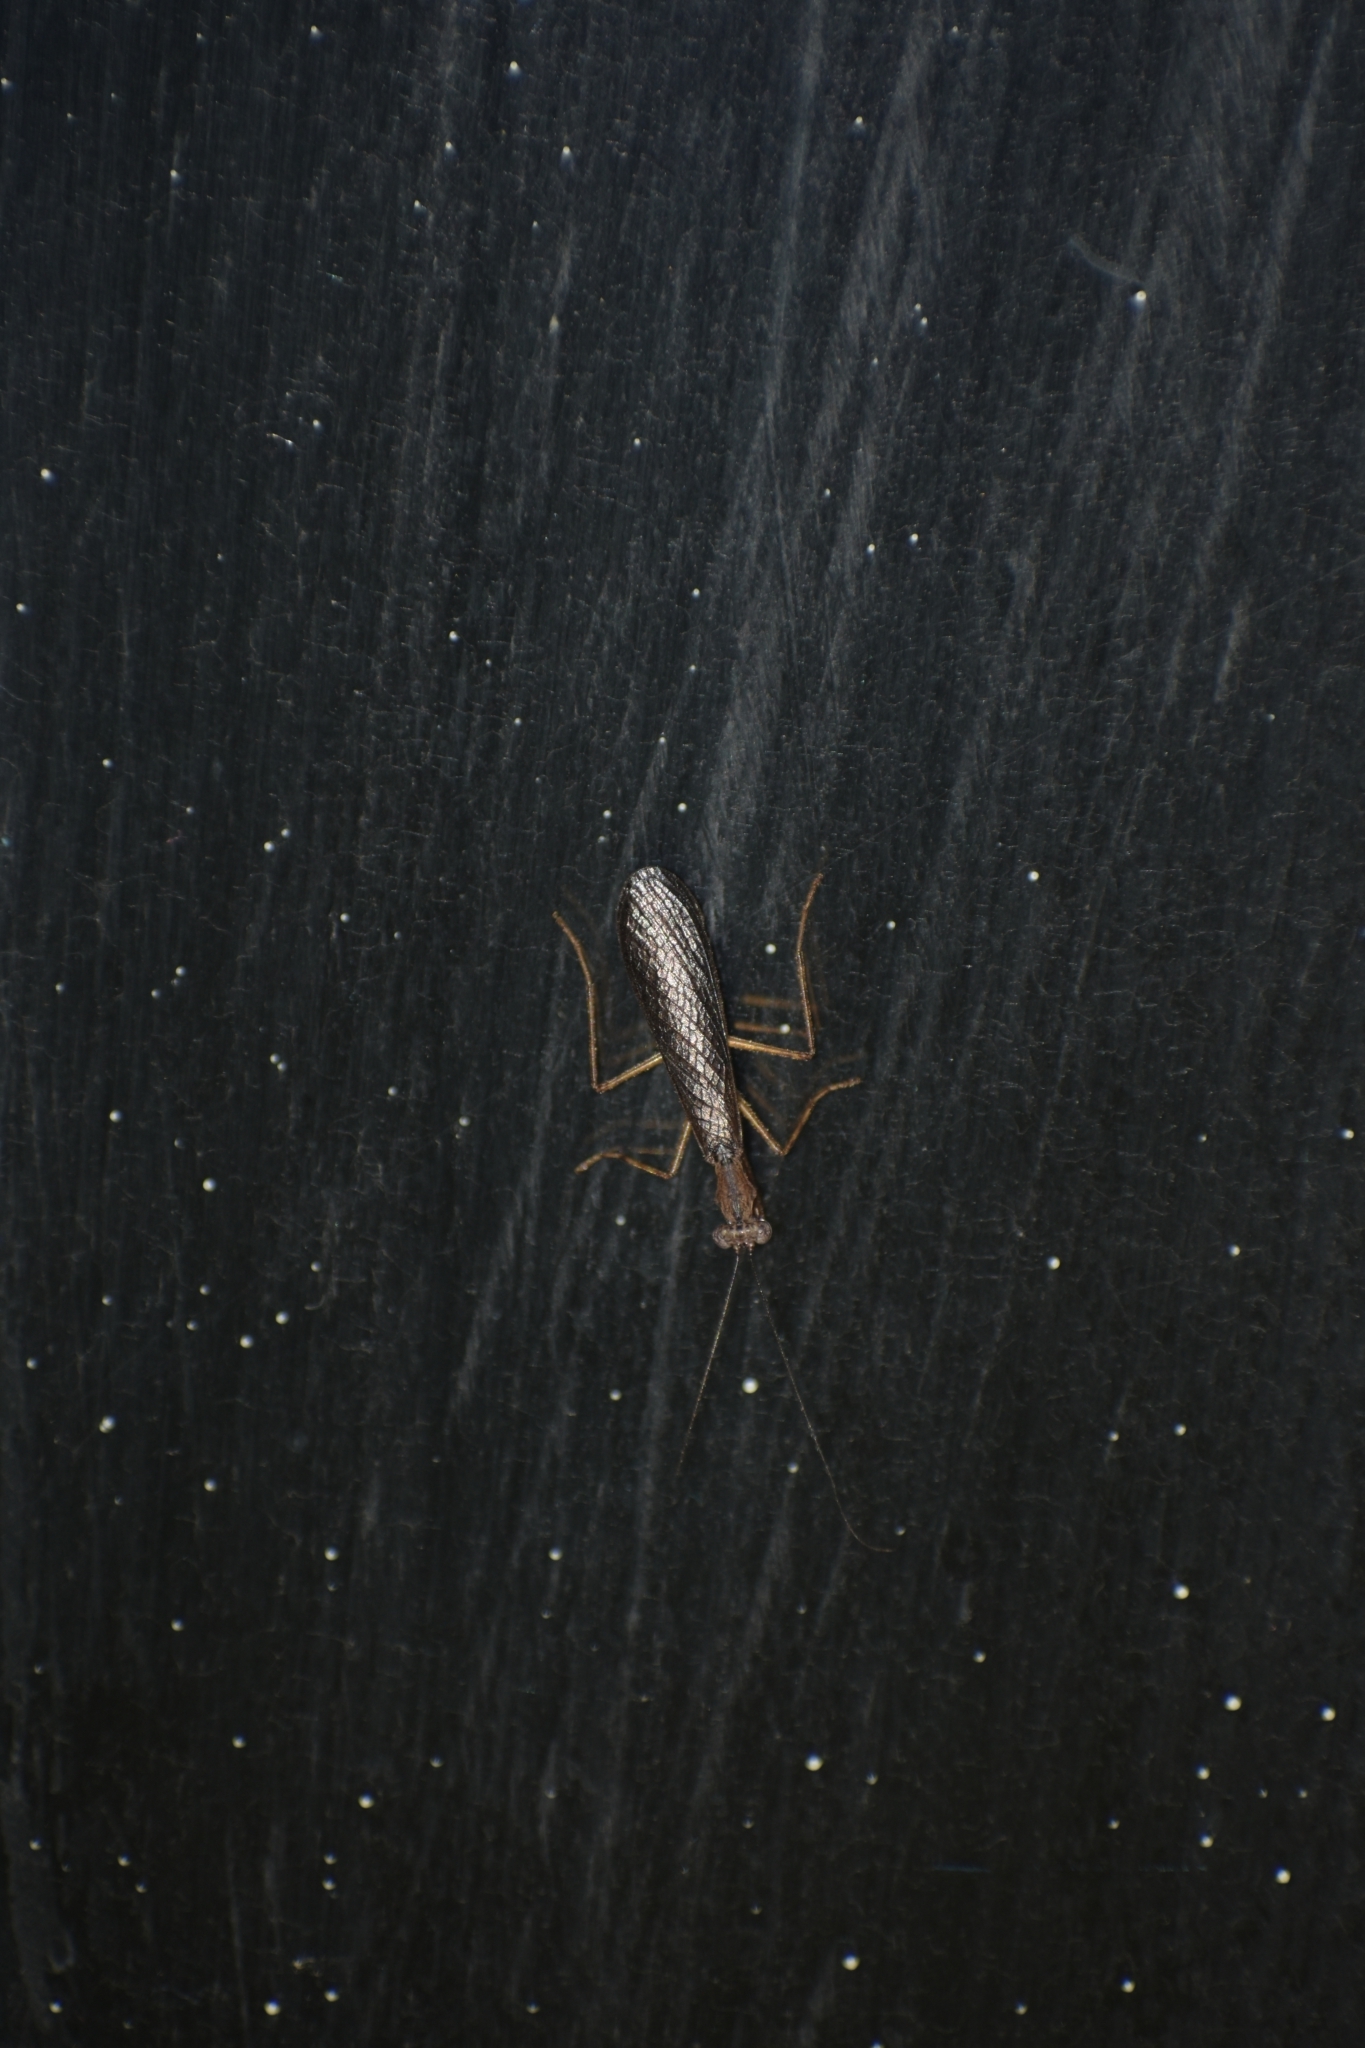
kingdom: Animalia
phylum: Arthropoda
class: Insecta
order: Mantodea
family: Gonypetidae
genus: Amantis
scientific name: Amantis reticulata
